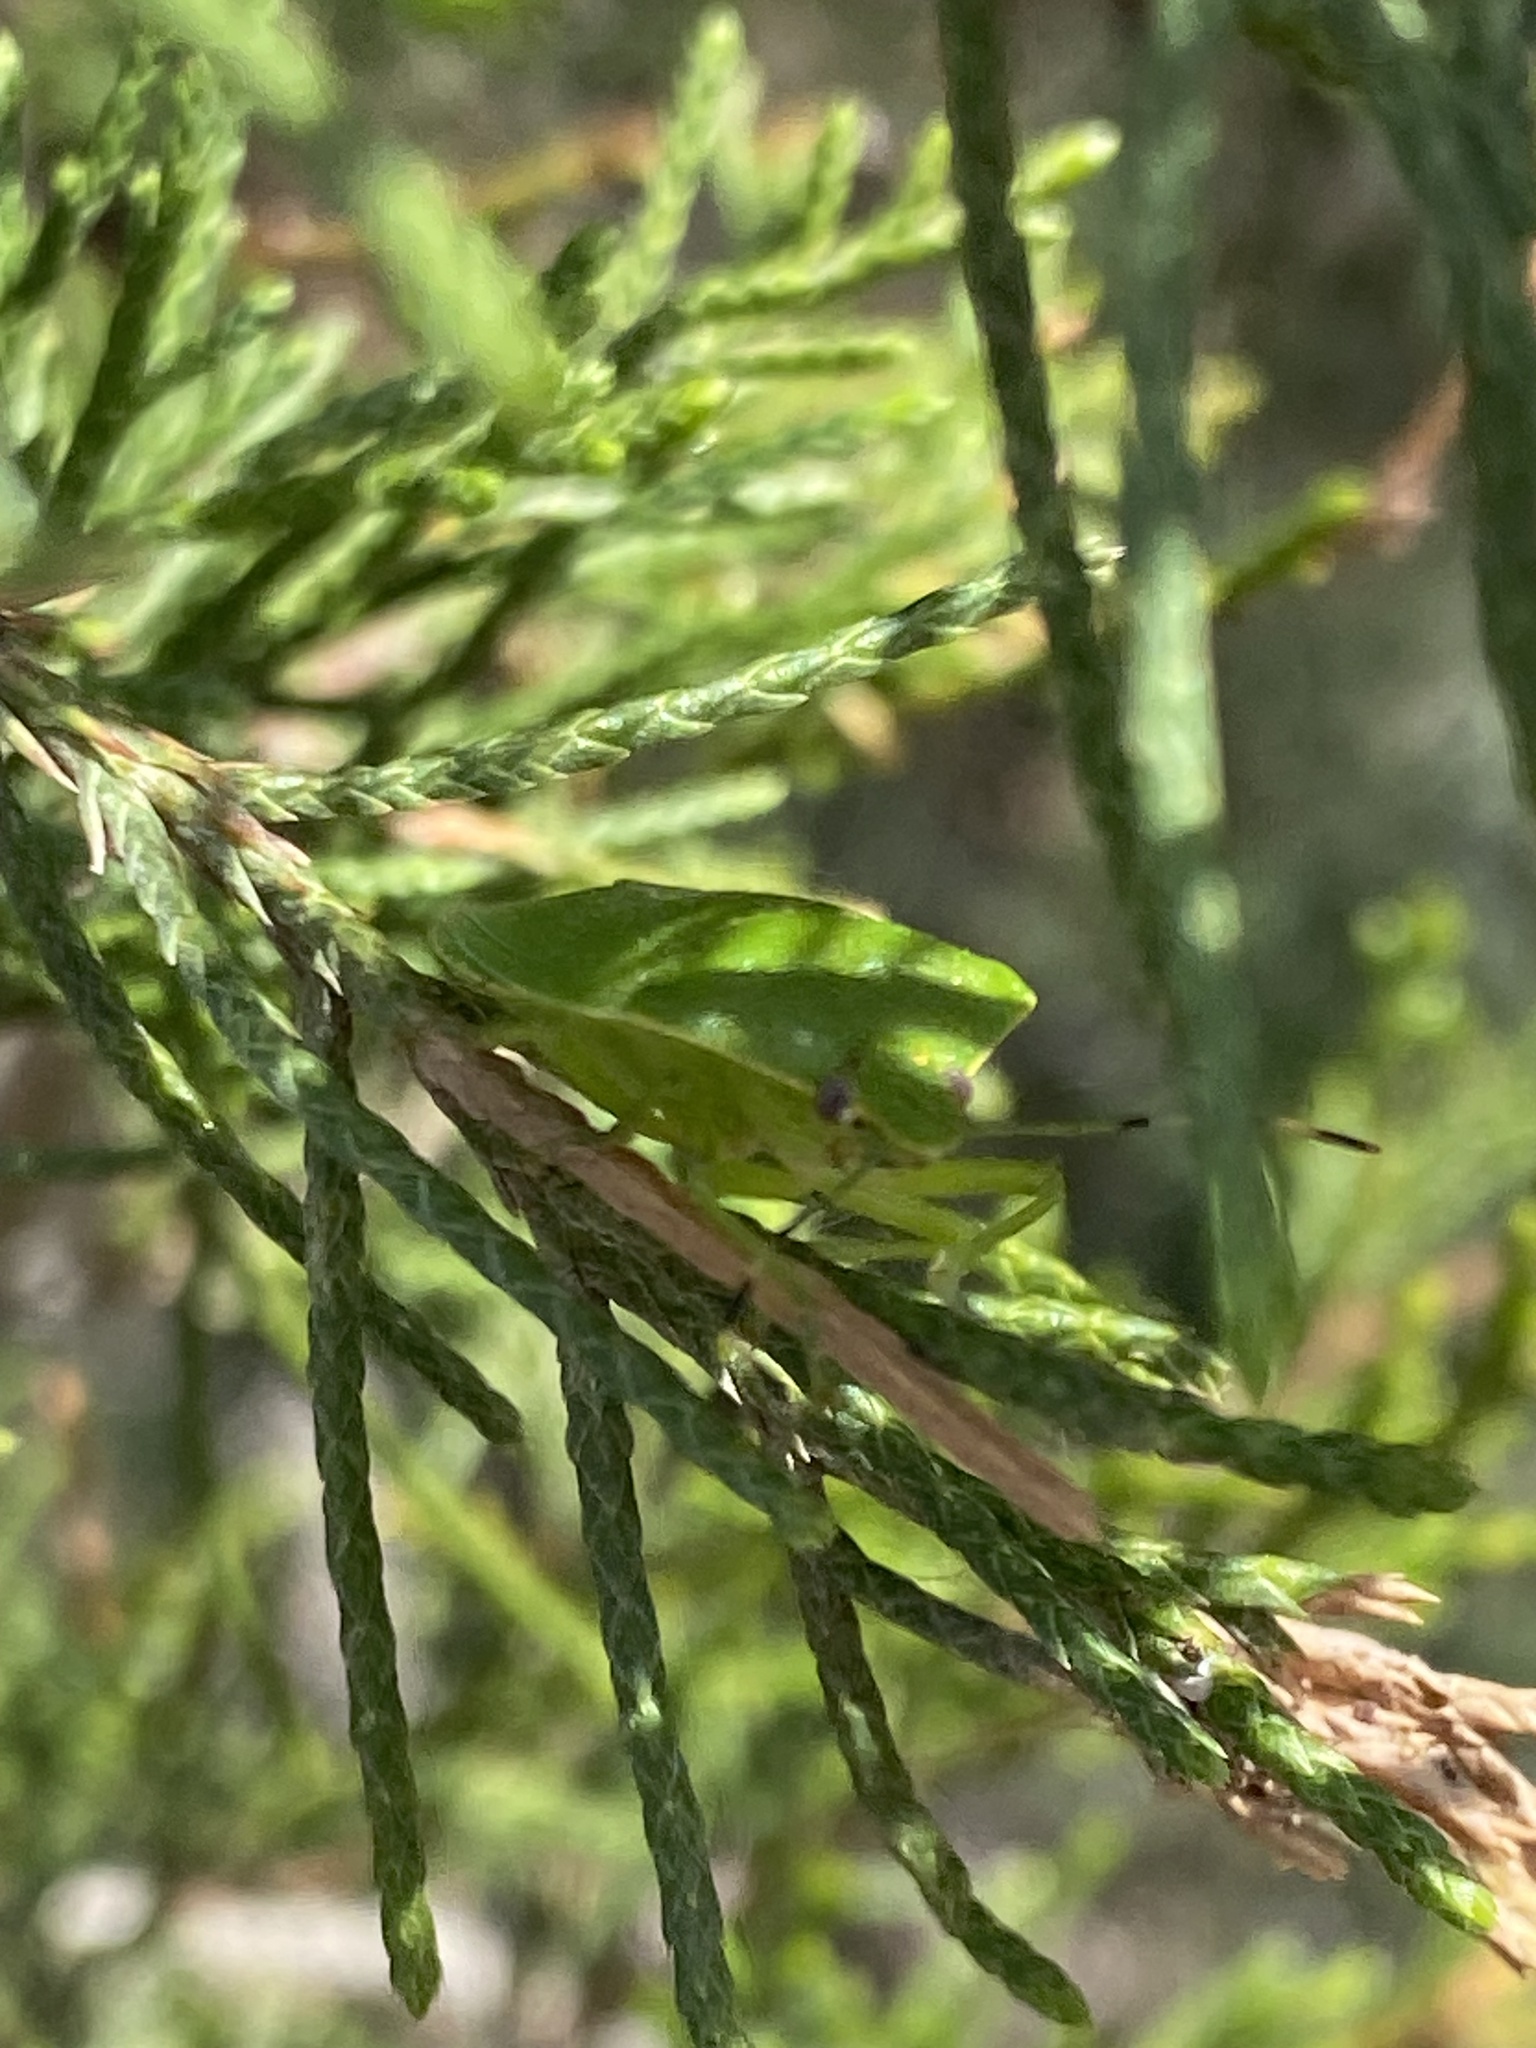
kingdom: Animalia
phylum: Arthropoda
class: Insecta
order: Hemiptera
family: Pentatomidae
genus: Chinavia
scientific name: Chinavia hilaris
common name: Green stink bug
